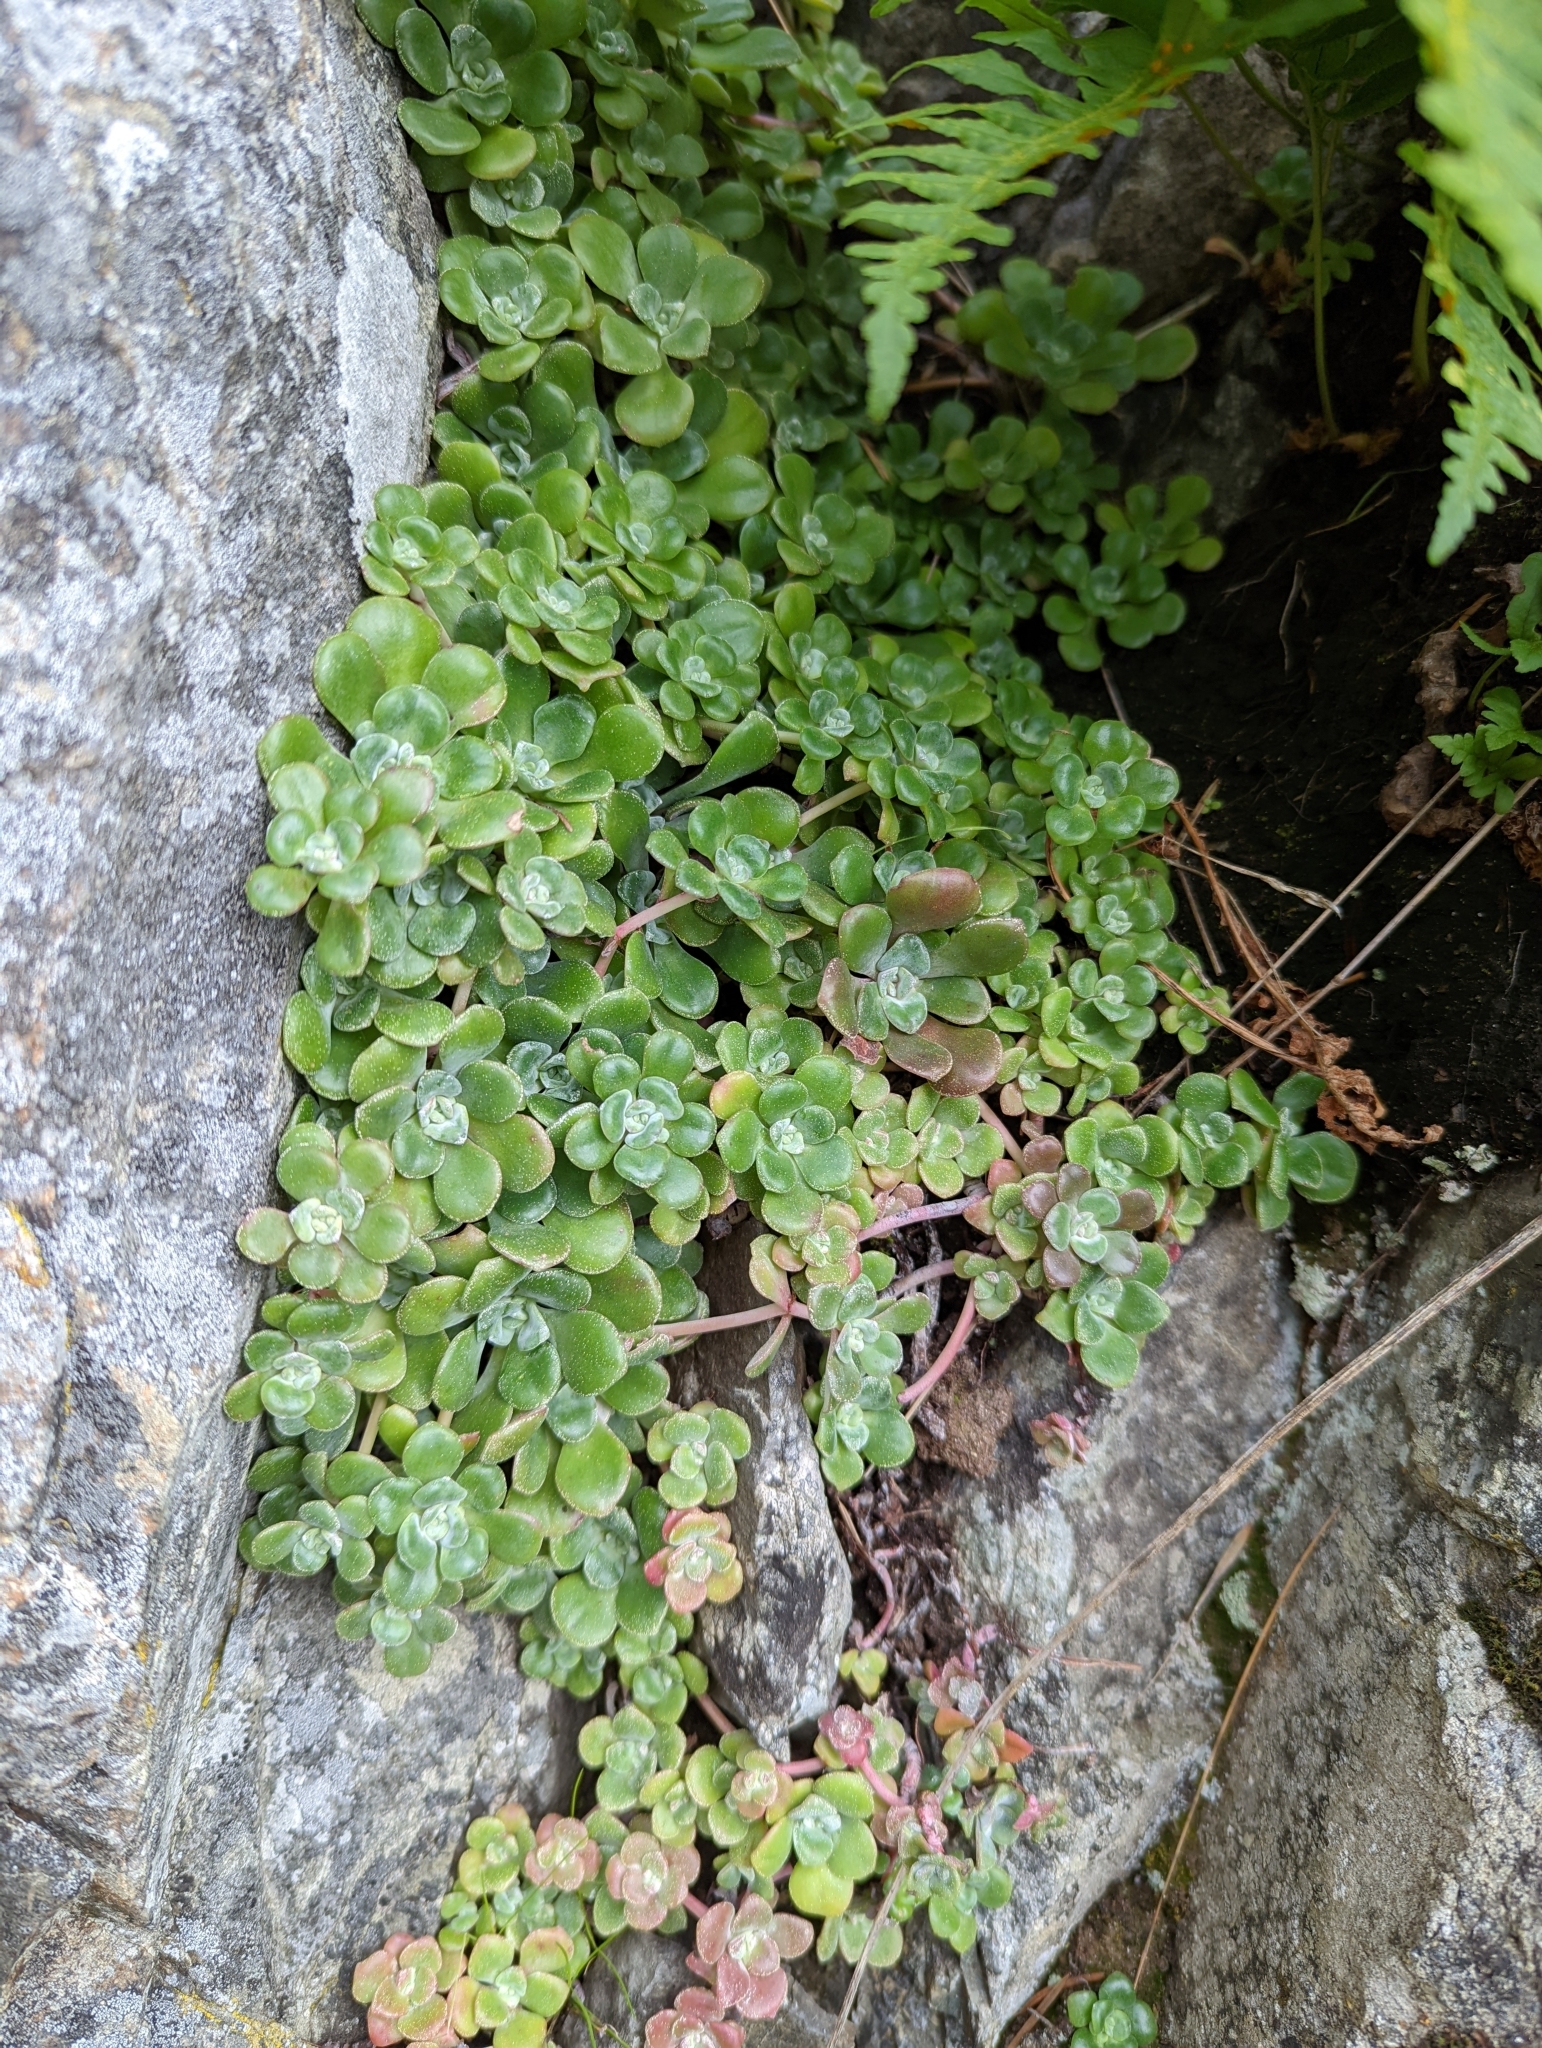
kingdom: Plantae
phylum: Tracheophyta
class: Magnoliopsida
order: Saxifragales
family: Crassulaceae
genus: Sedum
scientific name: Sedum spathulifolium
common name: Colorado stonecrop
